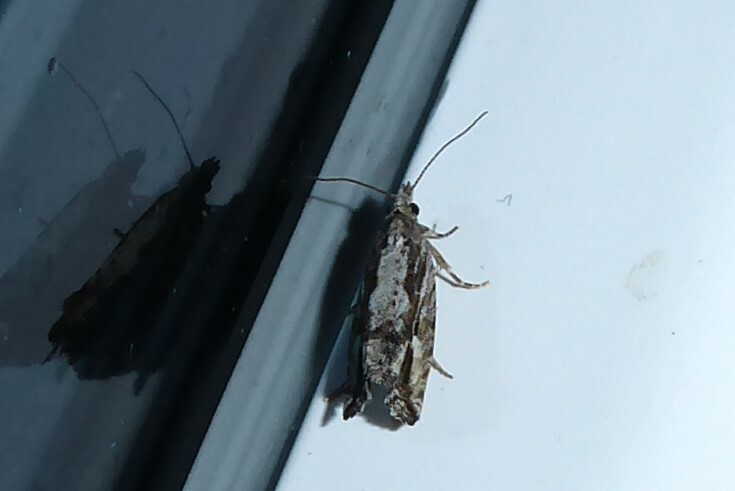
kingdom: Animalia
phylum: Arthropoda
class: Insecta
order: Lepidoptera
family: Tortricidae
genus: Strepsicrates
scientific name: Strepsicrates ejectana
